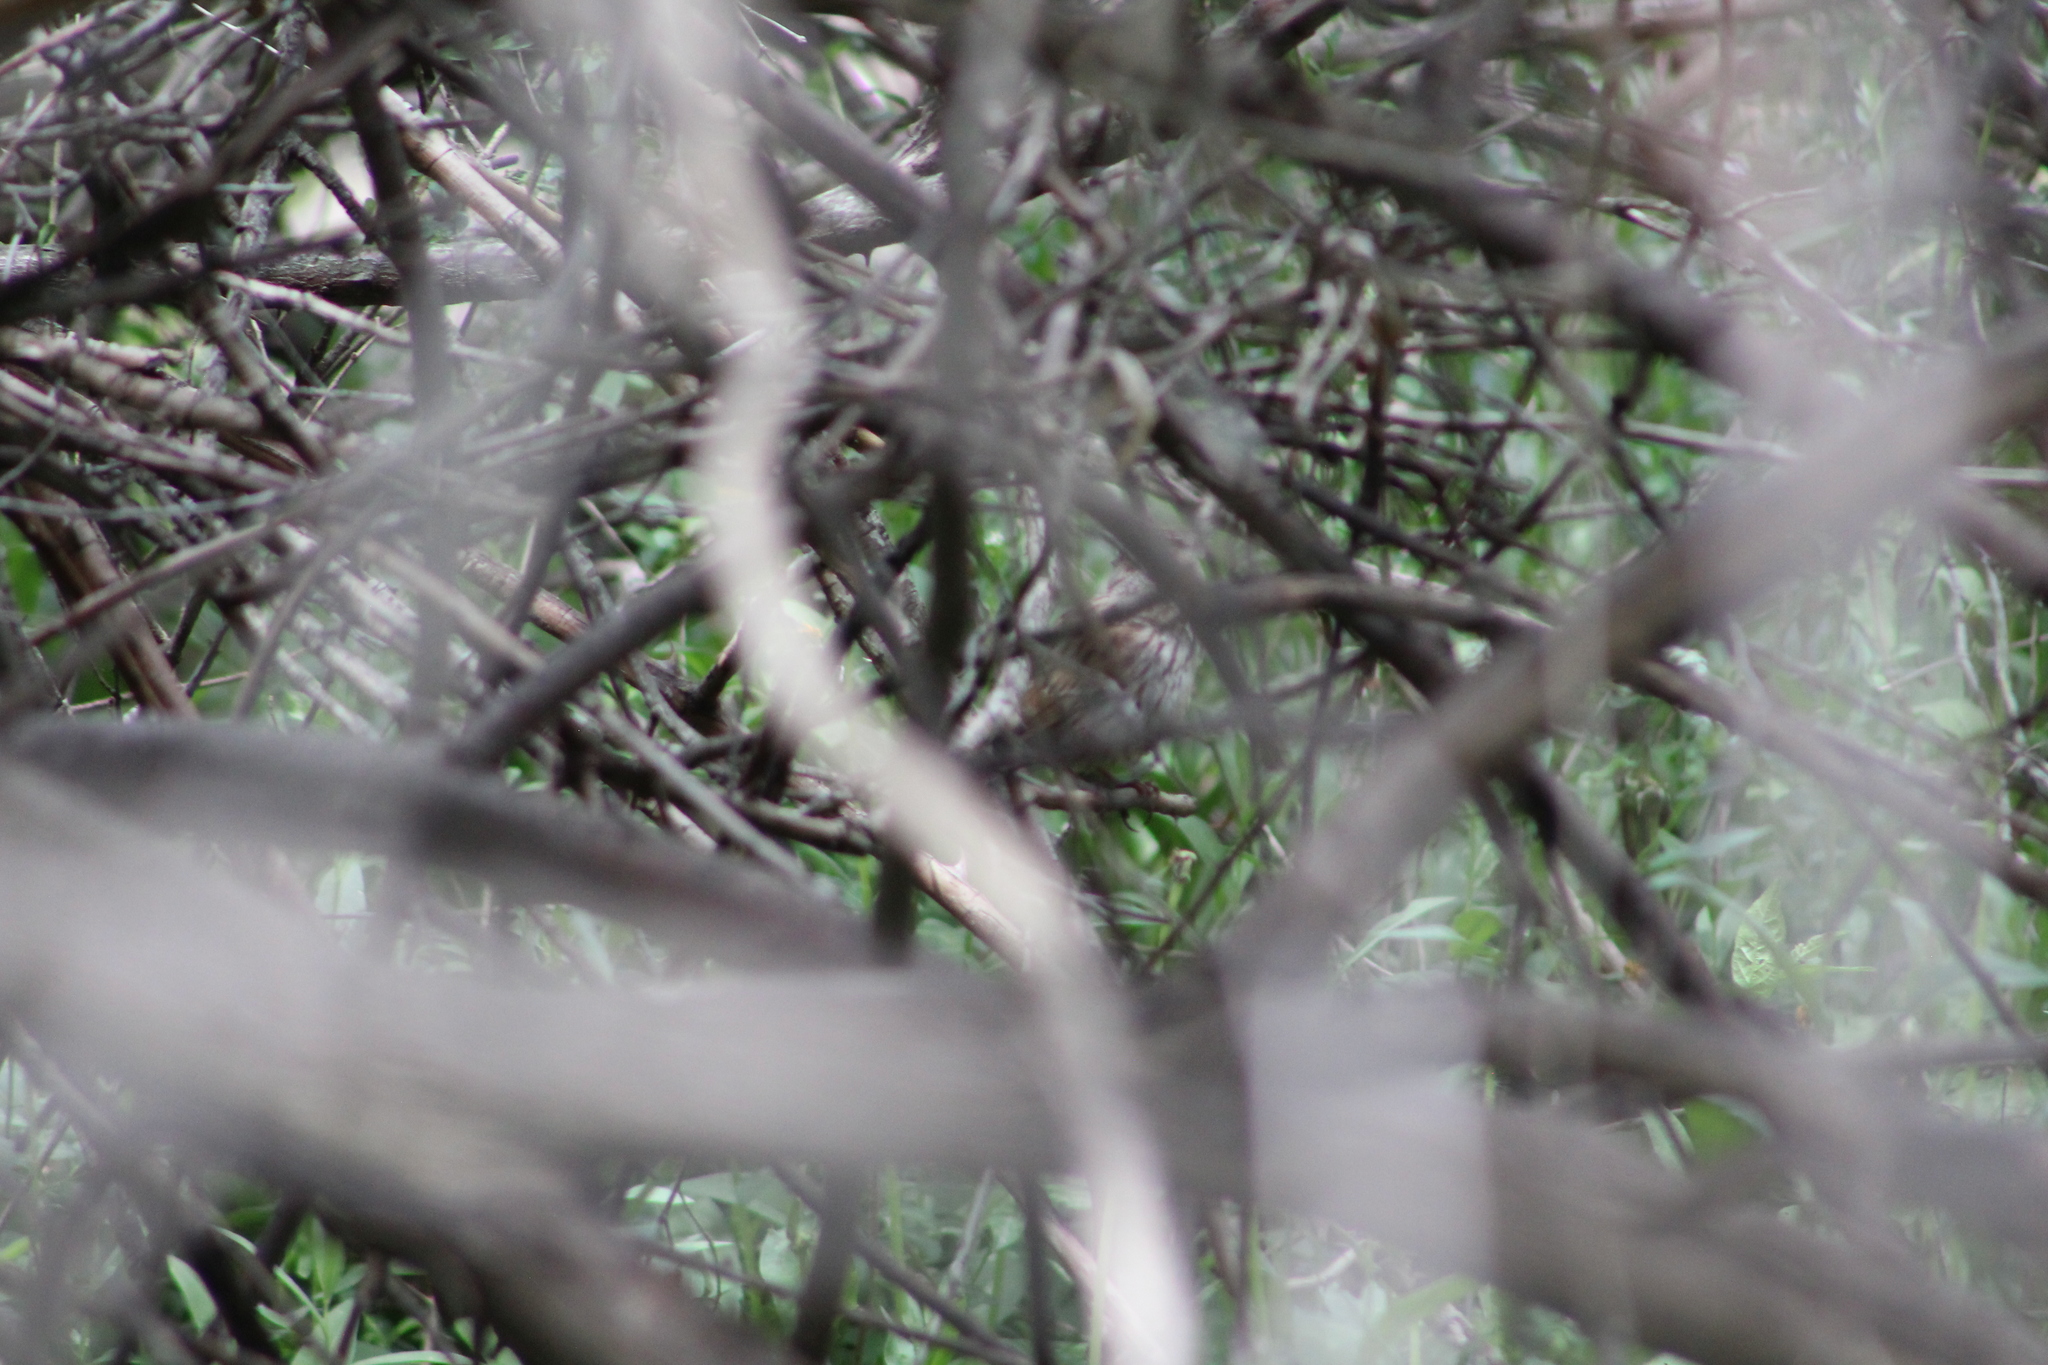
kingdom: Animalia
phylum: Chordata
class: Aves
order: Passeriformes
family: Passerellidae
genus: Melospiza
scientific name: Melospiza melodia
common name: Song sparrow
